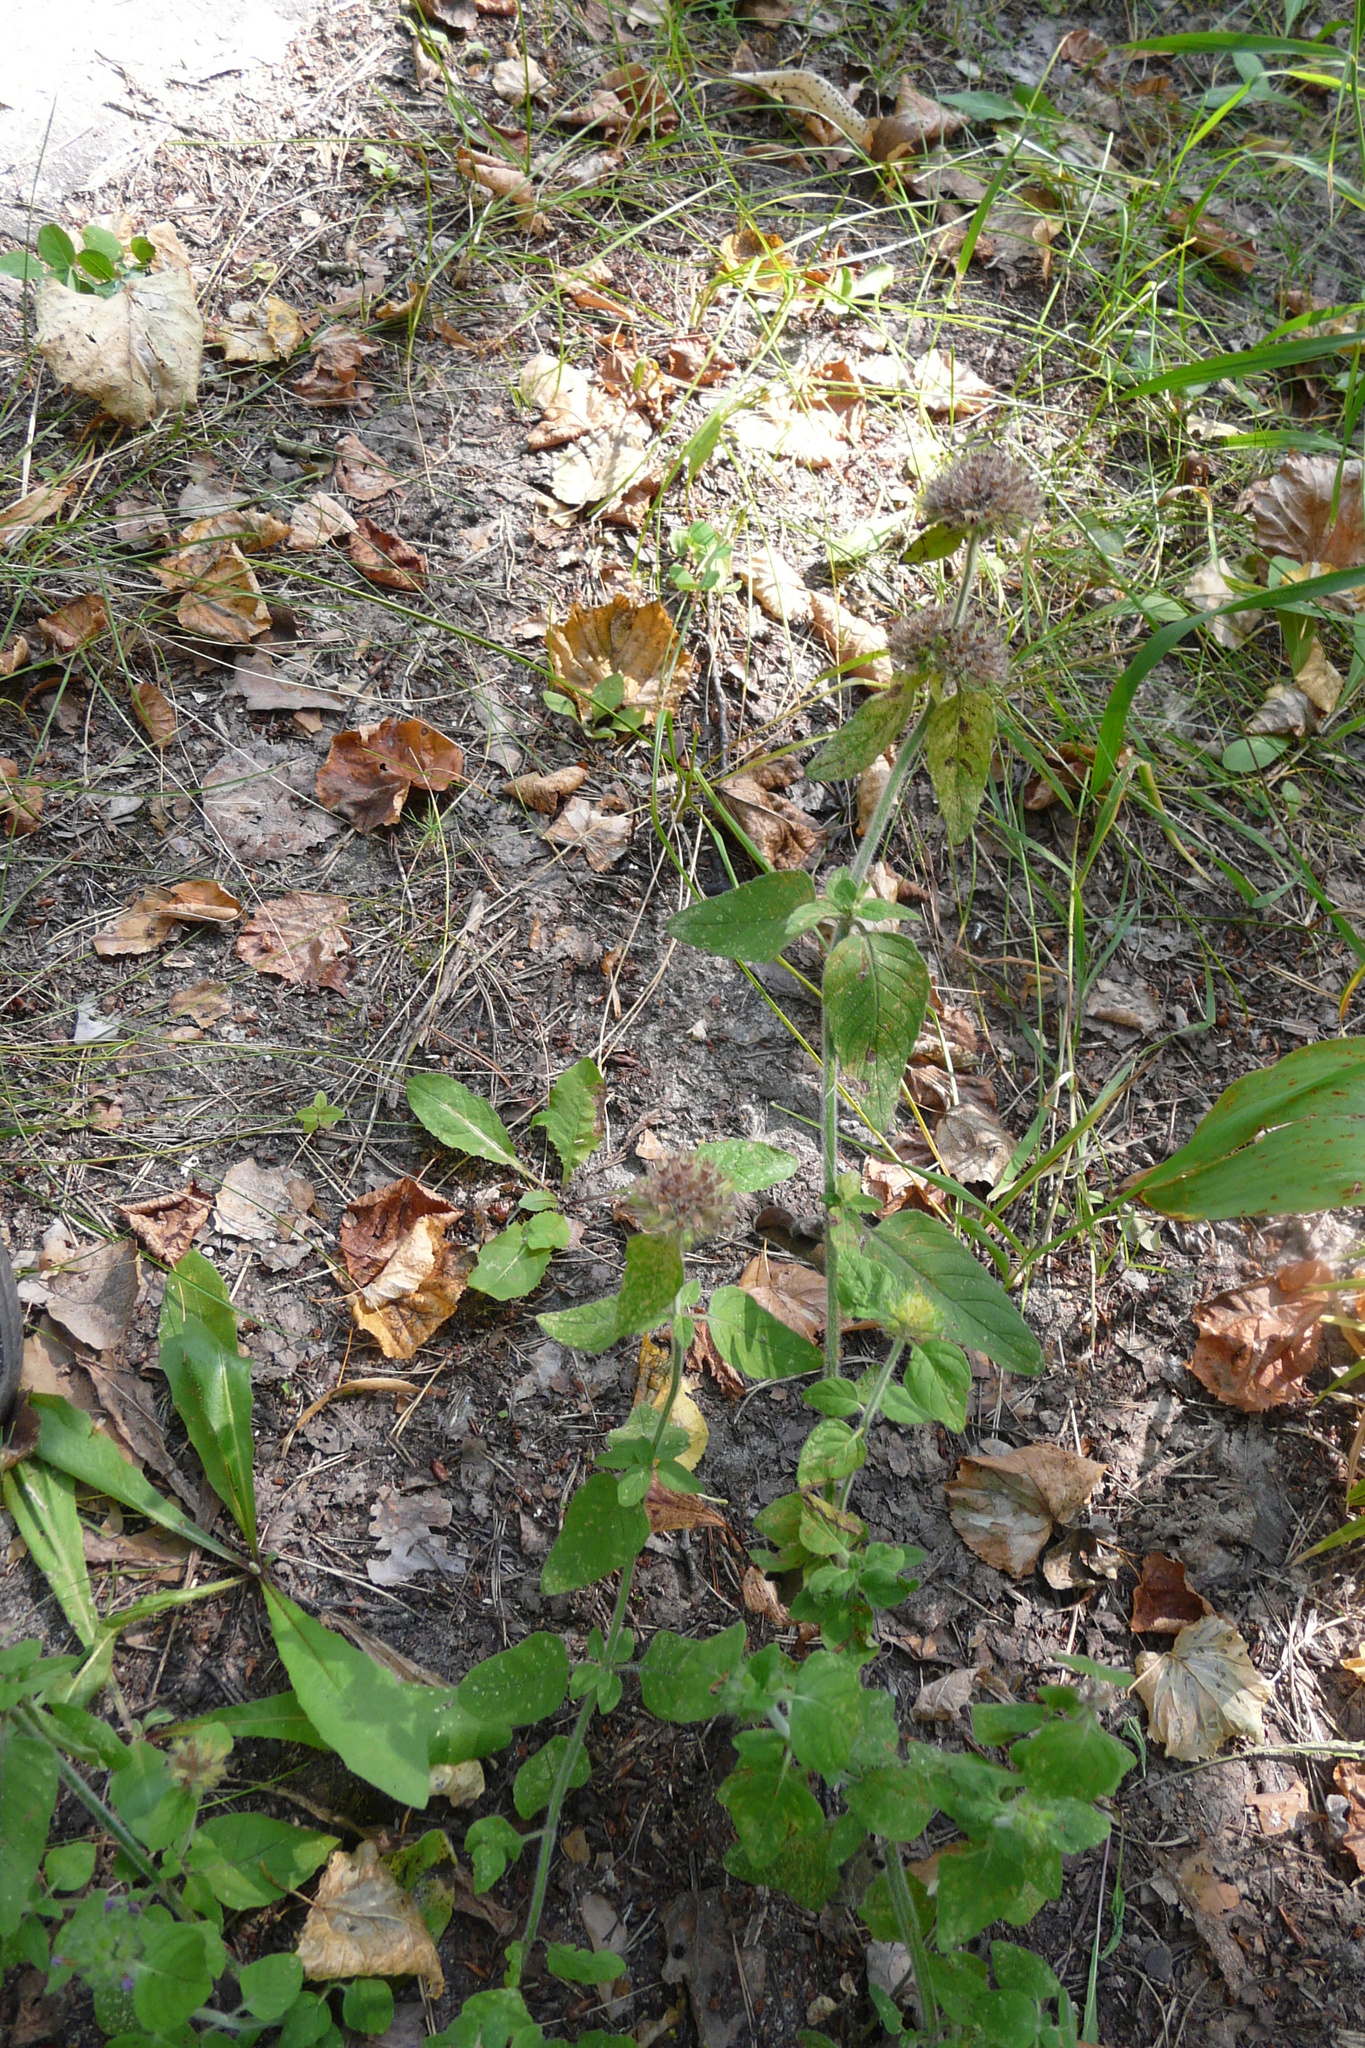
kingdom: Plantae
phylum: Tracheophyta
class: Magnoliopsida
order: Lamiales
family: Lamiaceae
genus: Clinopodium
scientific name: Clinopodium vulgare
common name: Wild basil
